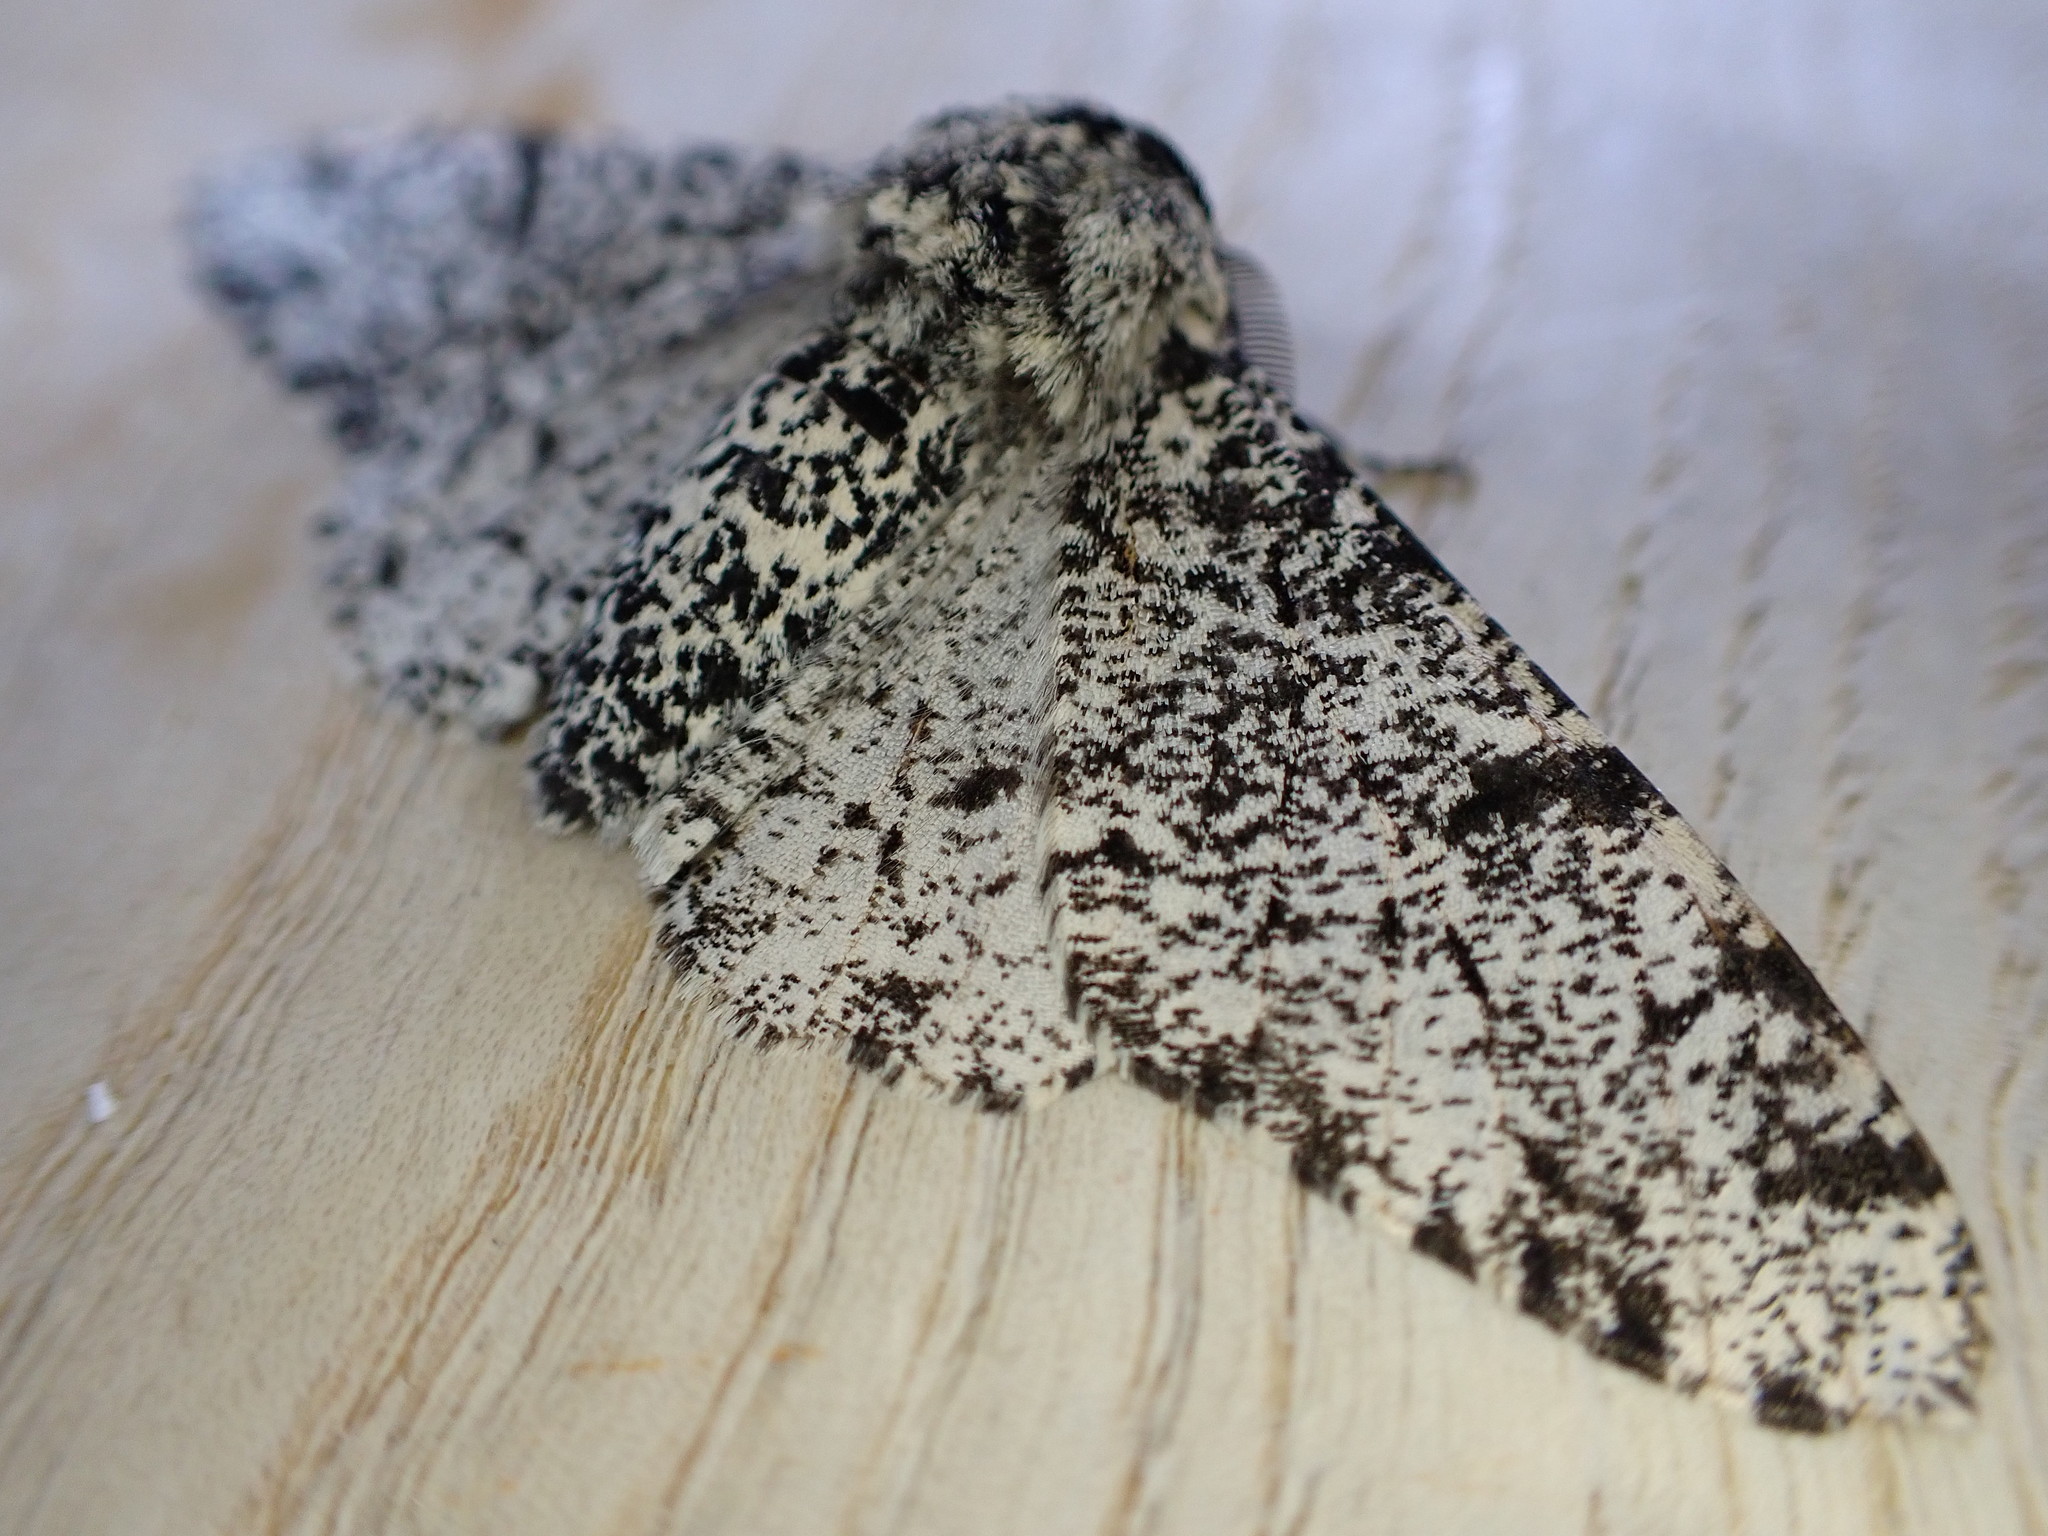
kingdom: Animalia
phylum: Arthropoda
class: Insecta
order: Lepidoptera
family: Geometridae
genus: Biston
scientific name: Biston betularia
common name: Peppered moth
